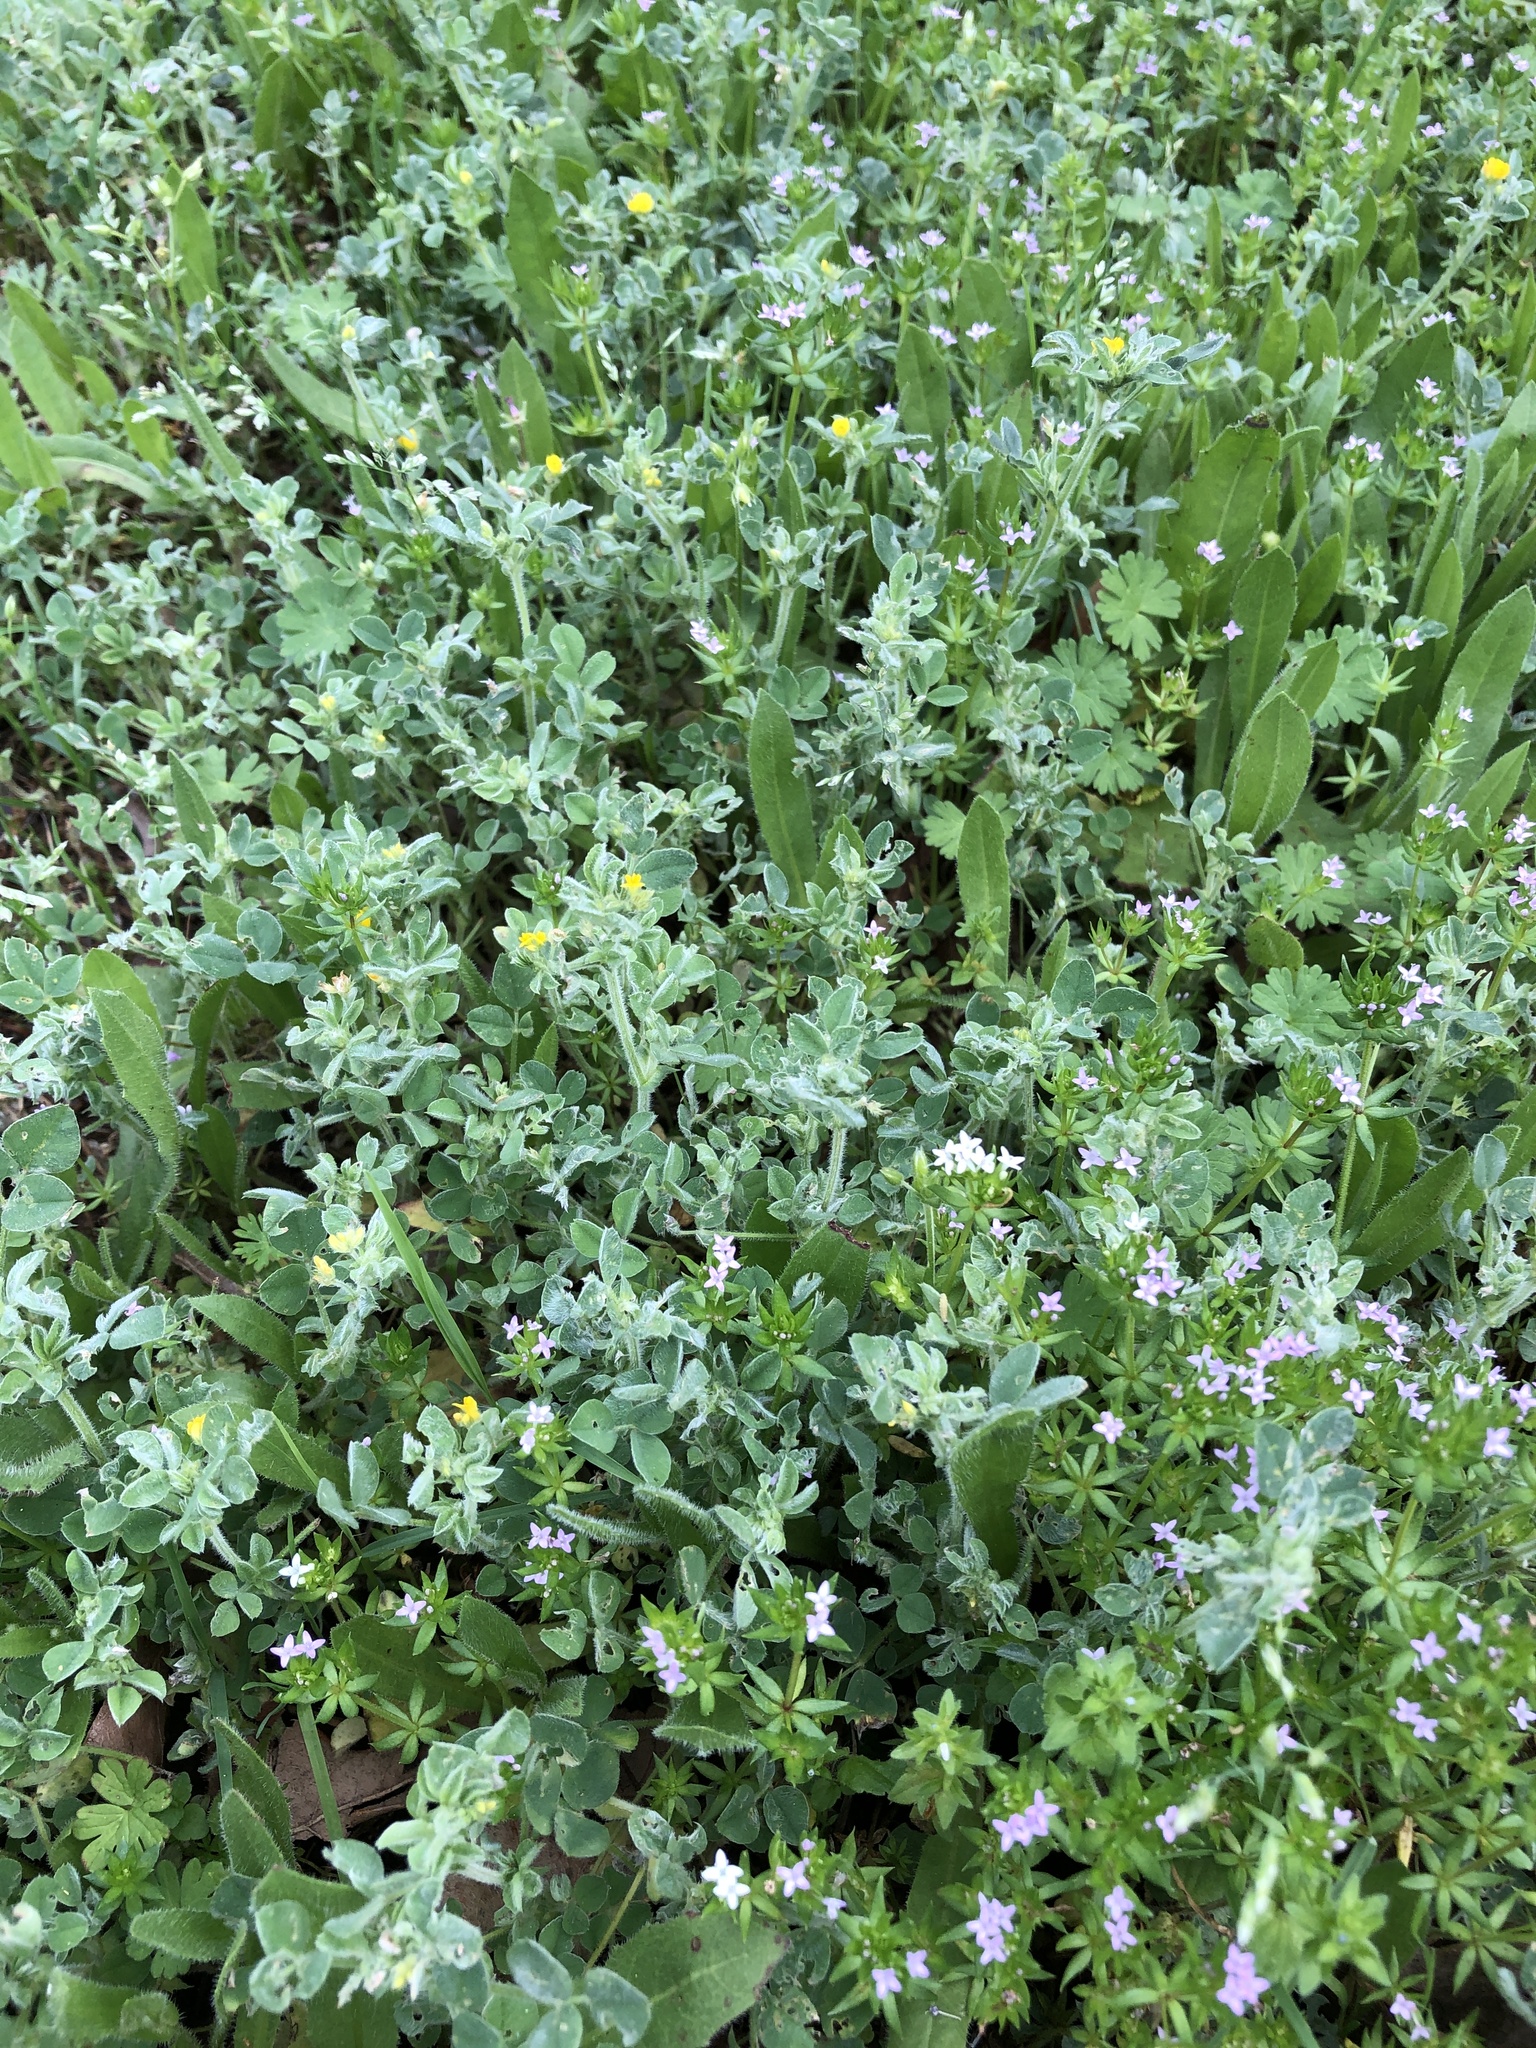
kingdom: Plantae
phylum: Tracheophyta
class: Magnoliopsida
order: Fabales
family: Fabaceae
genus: Medicago
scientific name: Medicago minima
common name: Little bur-clover
